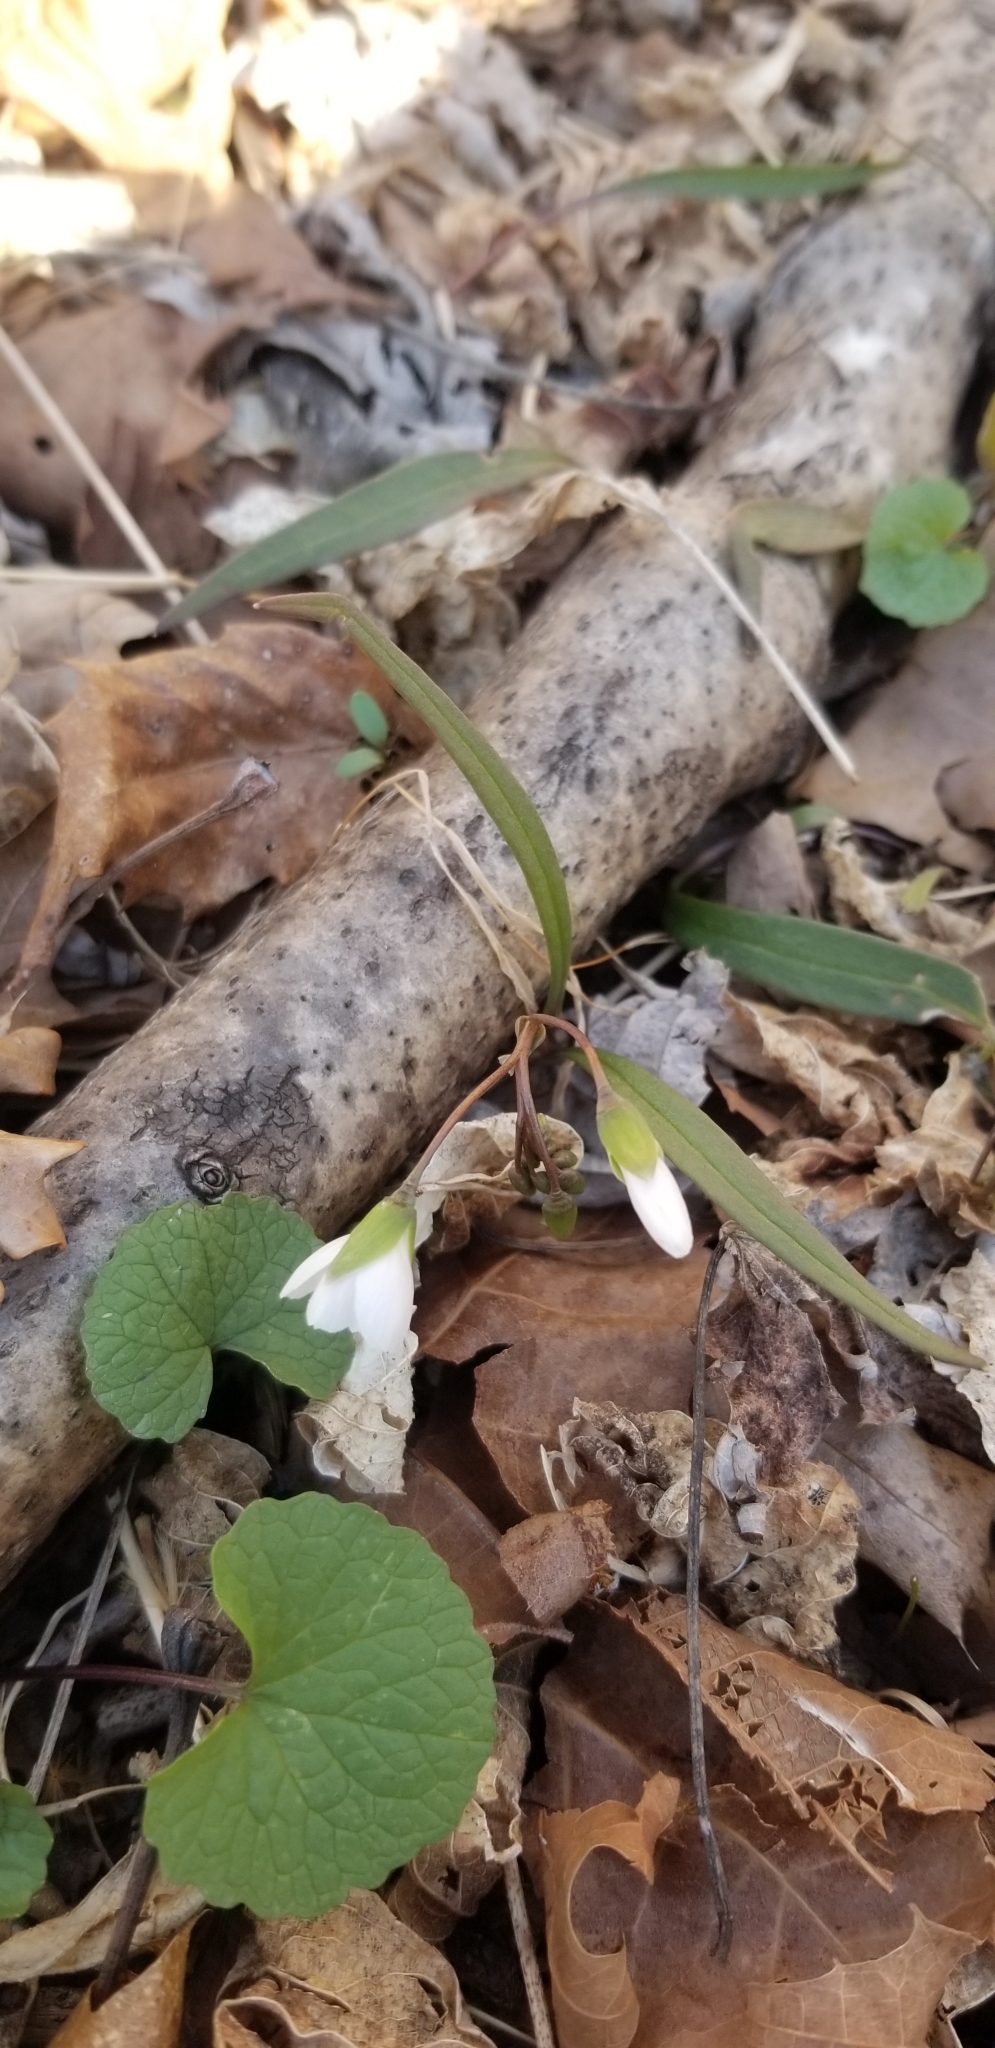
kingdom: Plantae
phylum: Tracheophyta
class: Magnoliopsida
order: Caryophyllales
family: Montiaceae
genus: Claytonia
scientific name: Claytonia virginica
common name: Virginia springbeauty
